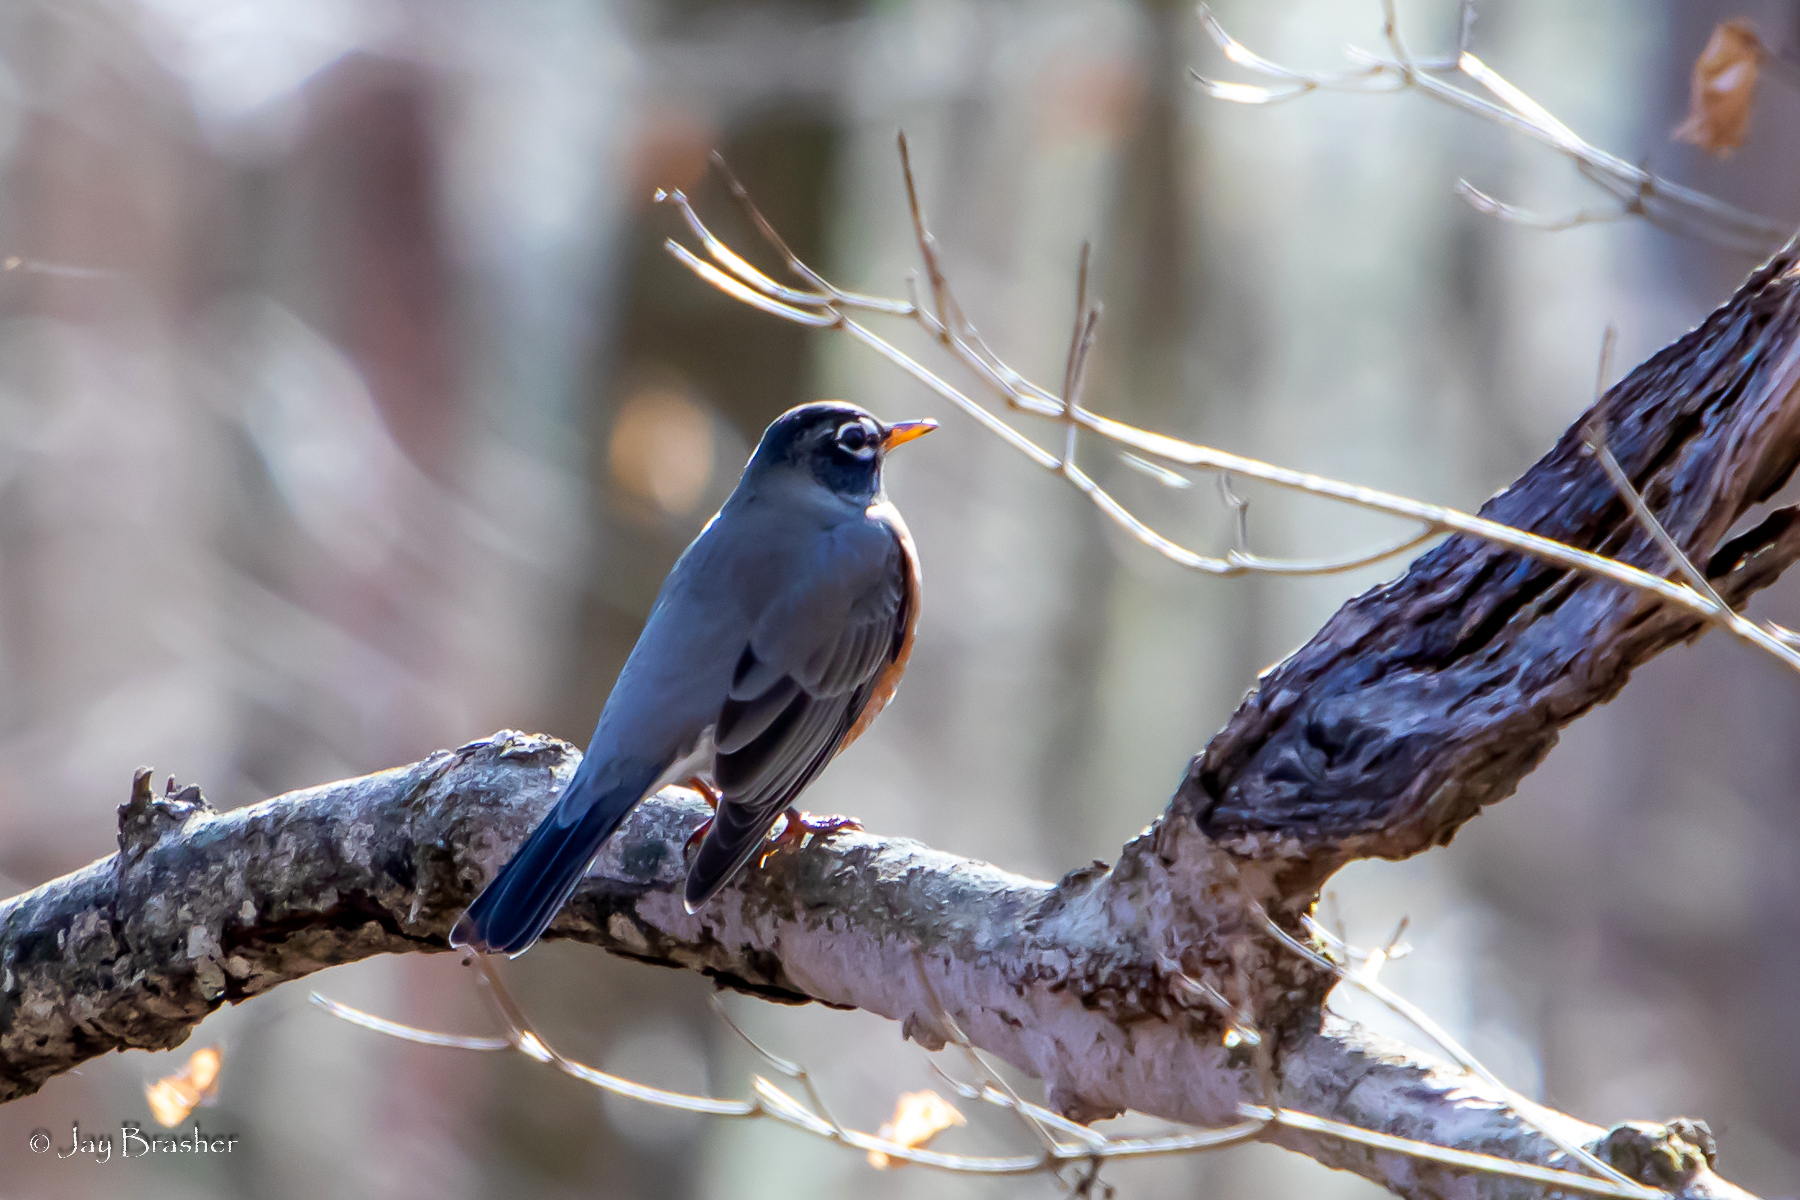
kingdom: Animalia
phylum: Chordata
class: Aves
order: Passeriformes
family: Turdidae
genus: Turdus
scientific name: Turdus migratorius
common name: American robin
